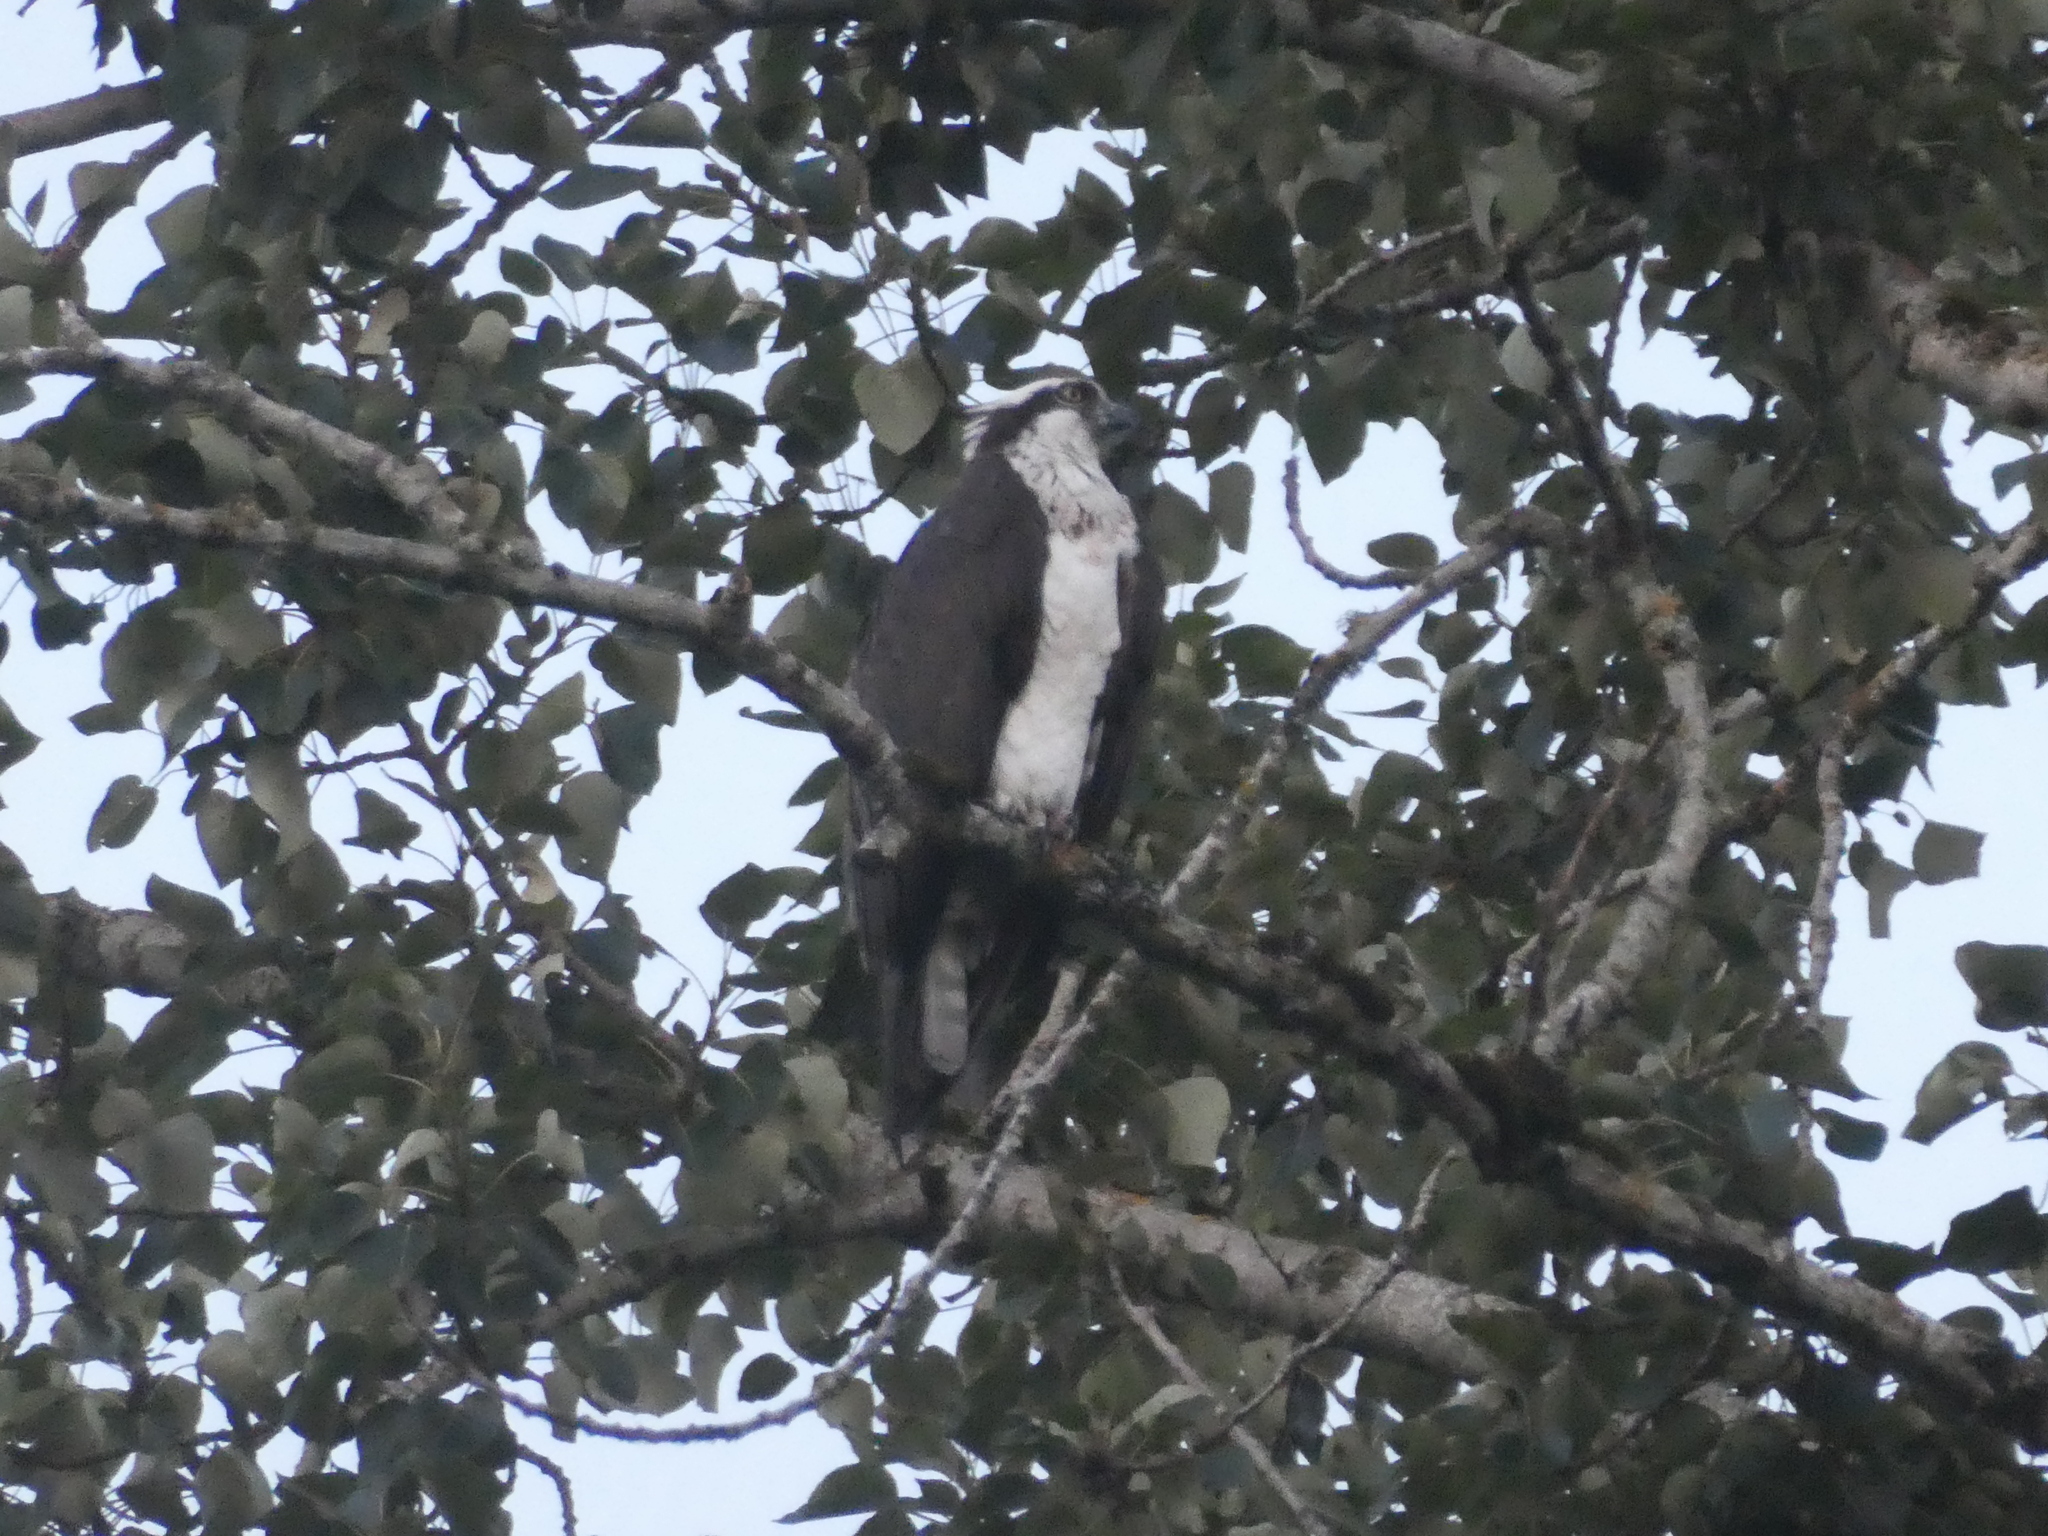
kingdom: Animalia
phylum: Chordata
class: Aves
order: Accipitriformes
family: Pandionidae
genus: Pandion
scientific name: Pandion haliaetus
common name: Osprey
